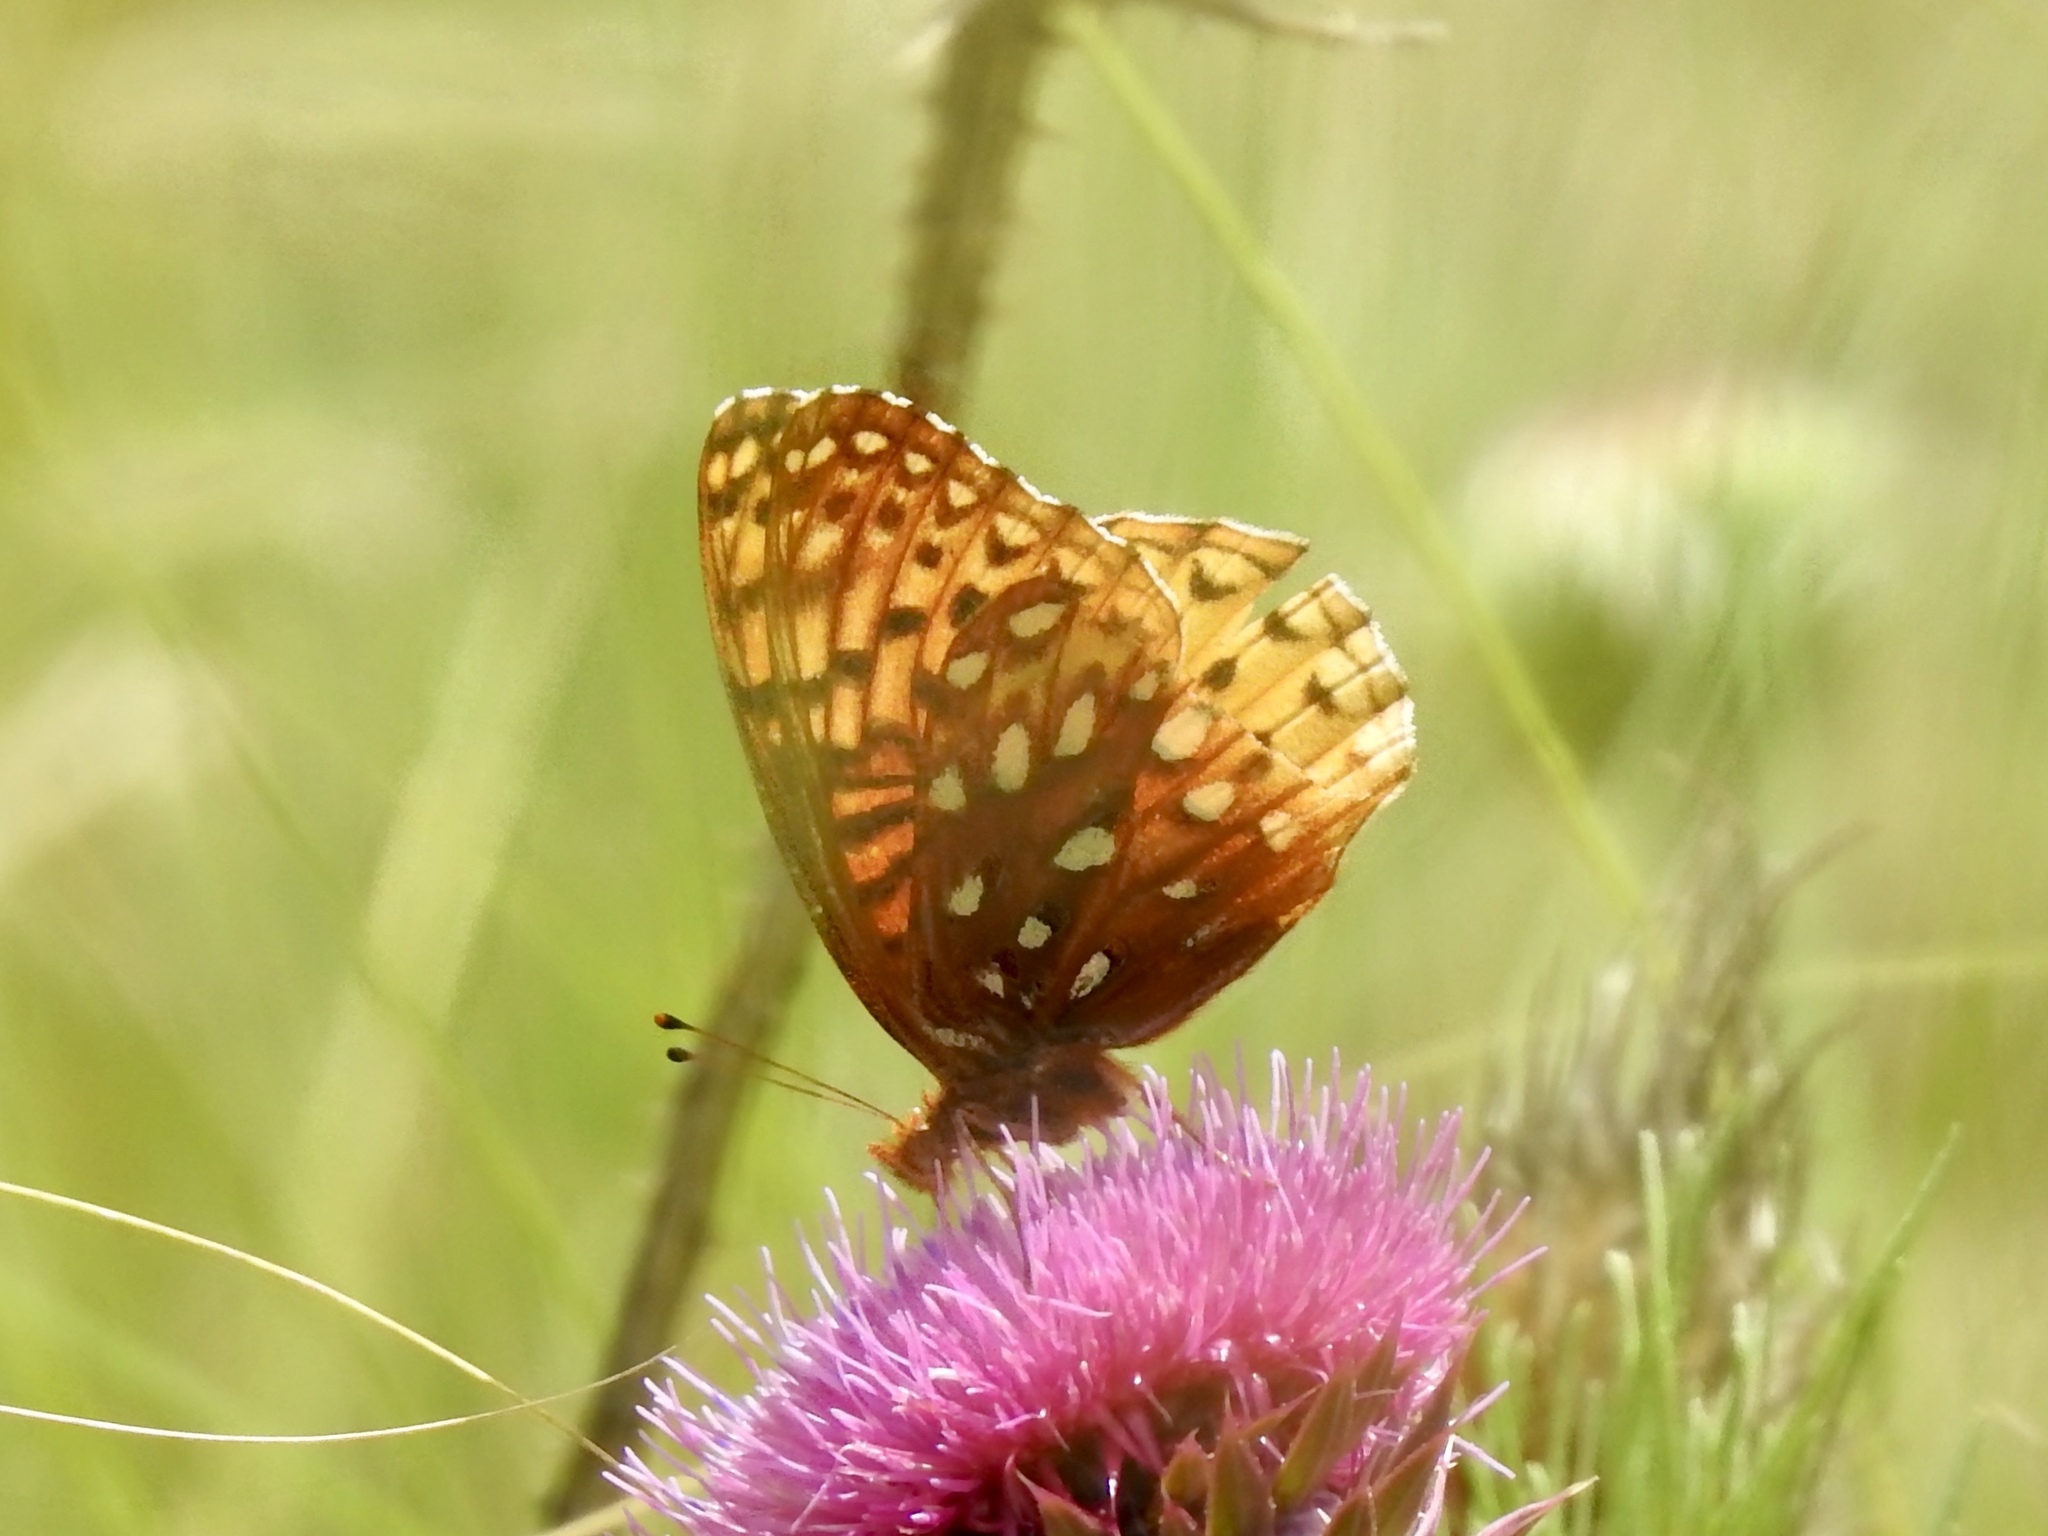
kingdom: Animalia
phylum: Arthropoda
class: Insecta
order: Lepidoptera
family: Nymphalidae
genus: Speyeria
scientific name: Speyeria atlantis
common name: Atlantis fritillary
